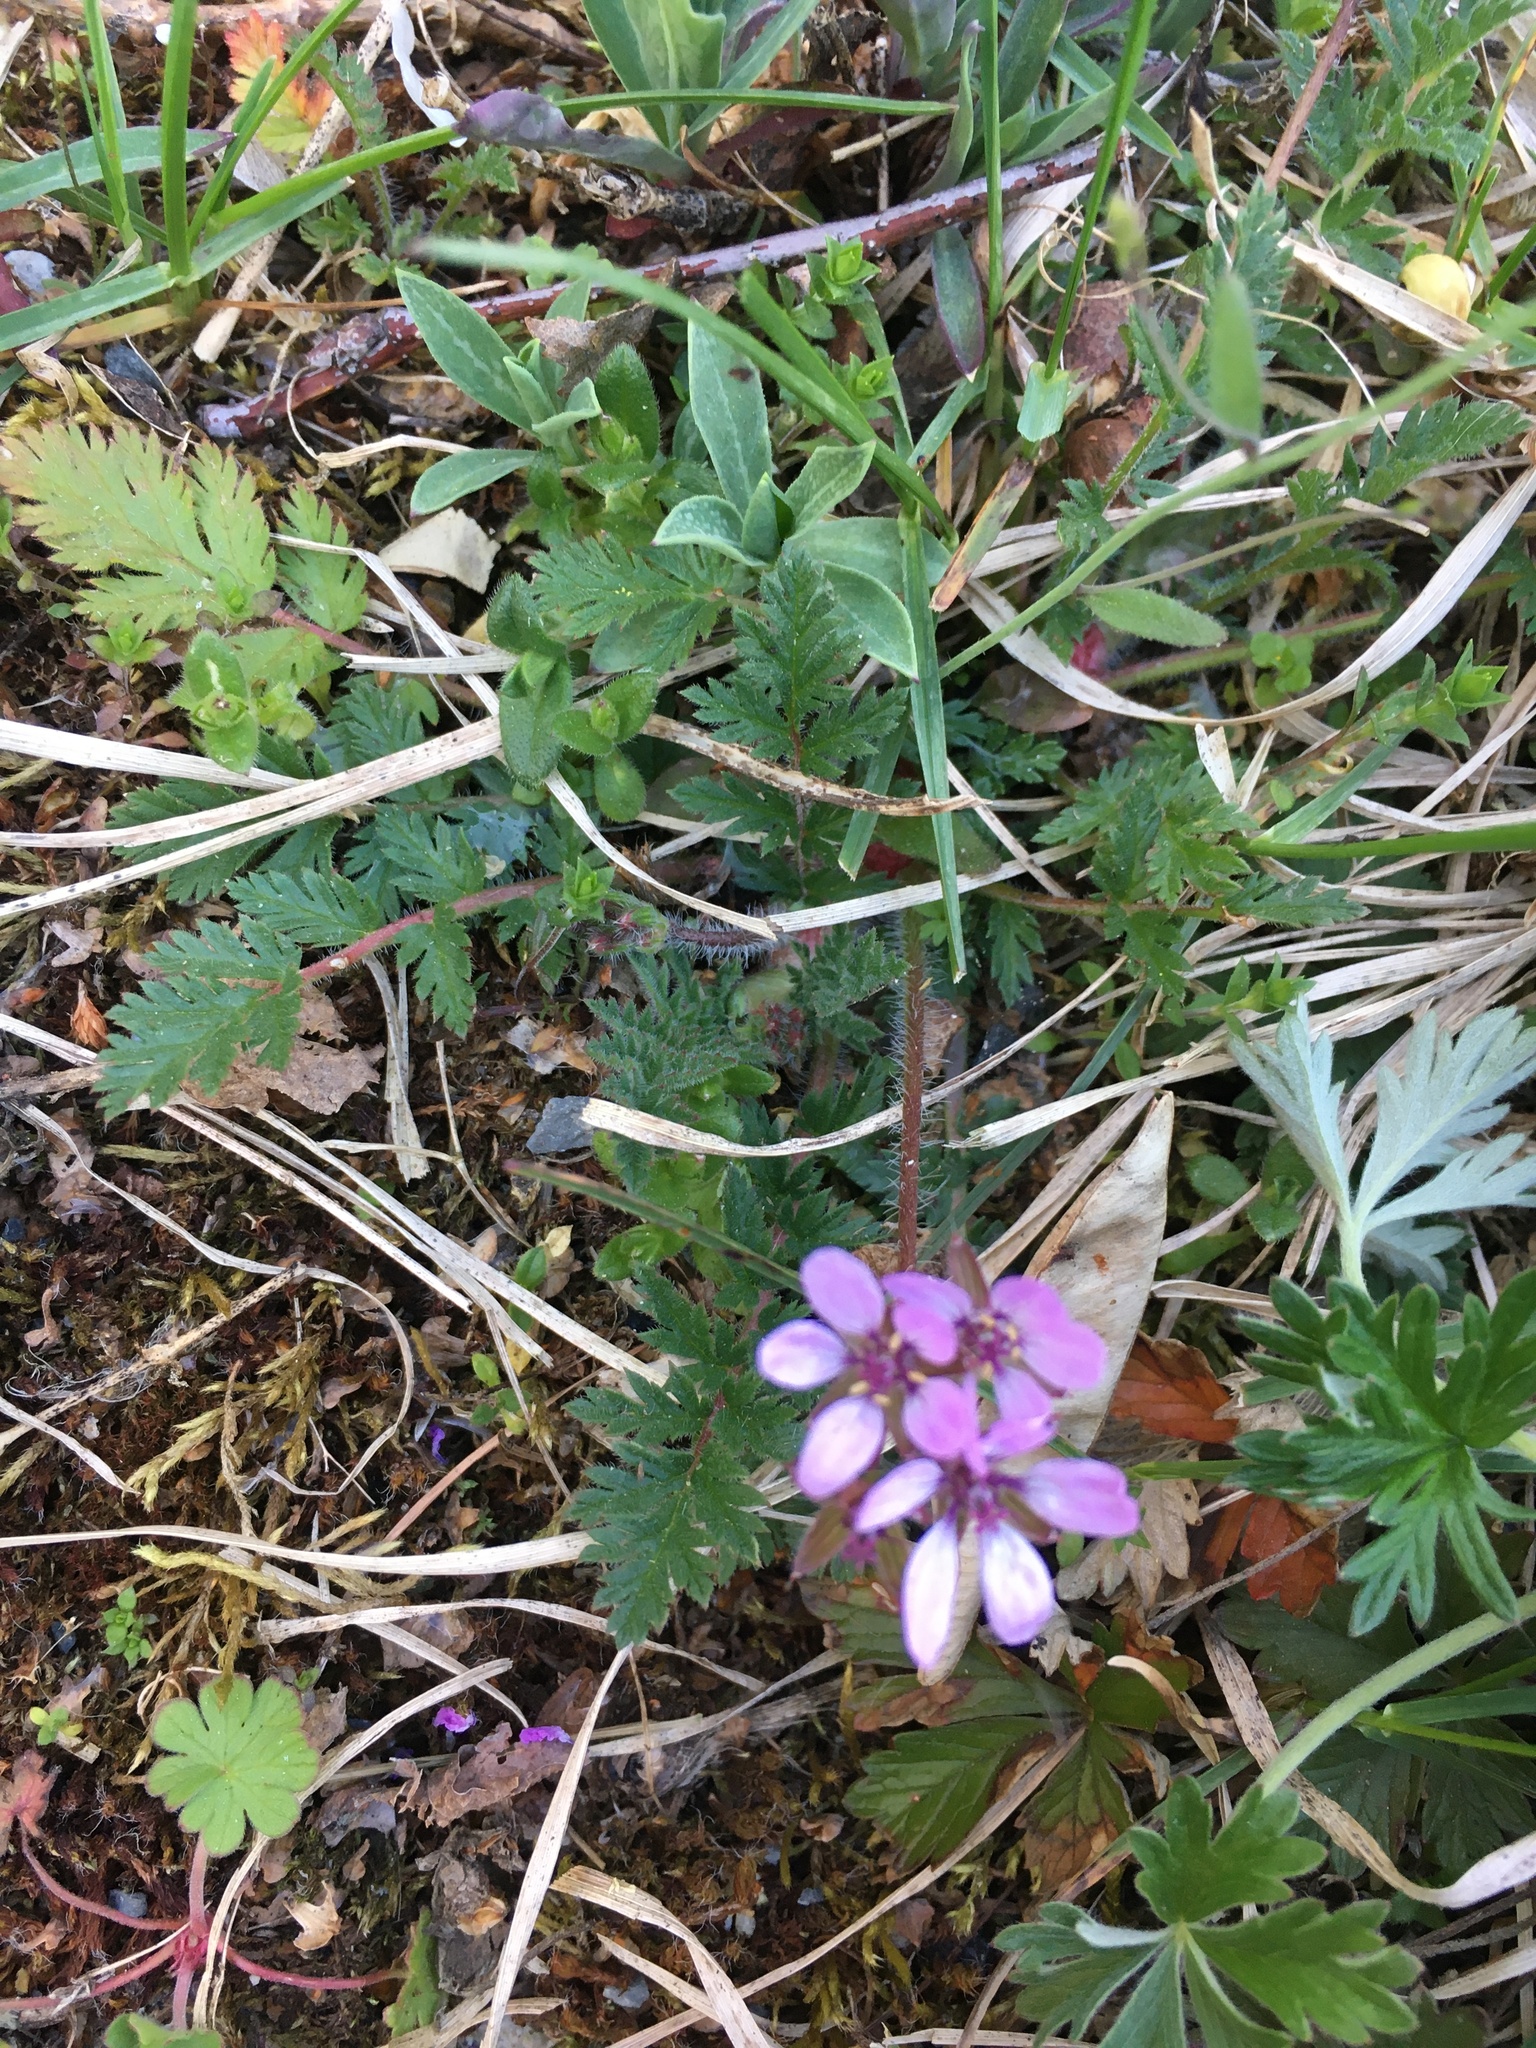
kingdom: Plantae
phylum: Tracheophyta
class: Magnoliopsida
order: Geraniales
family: Geraniaceae
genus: Erodium
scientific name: Erodium cicutarium
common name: Common stork's-bill
